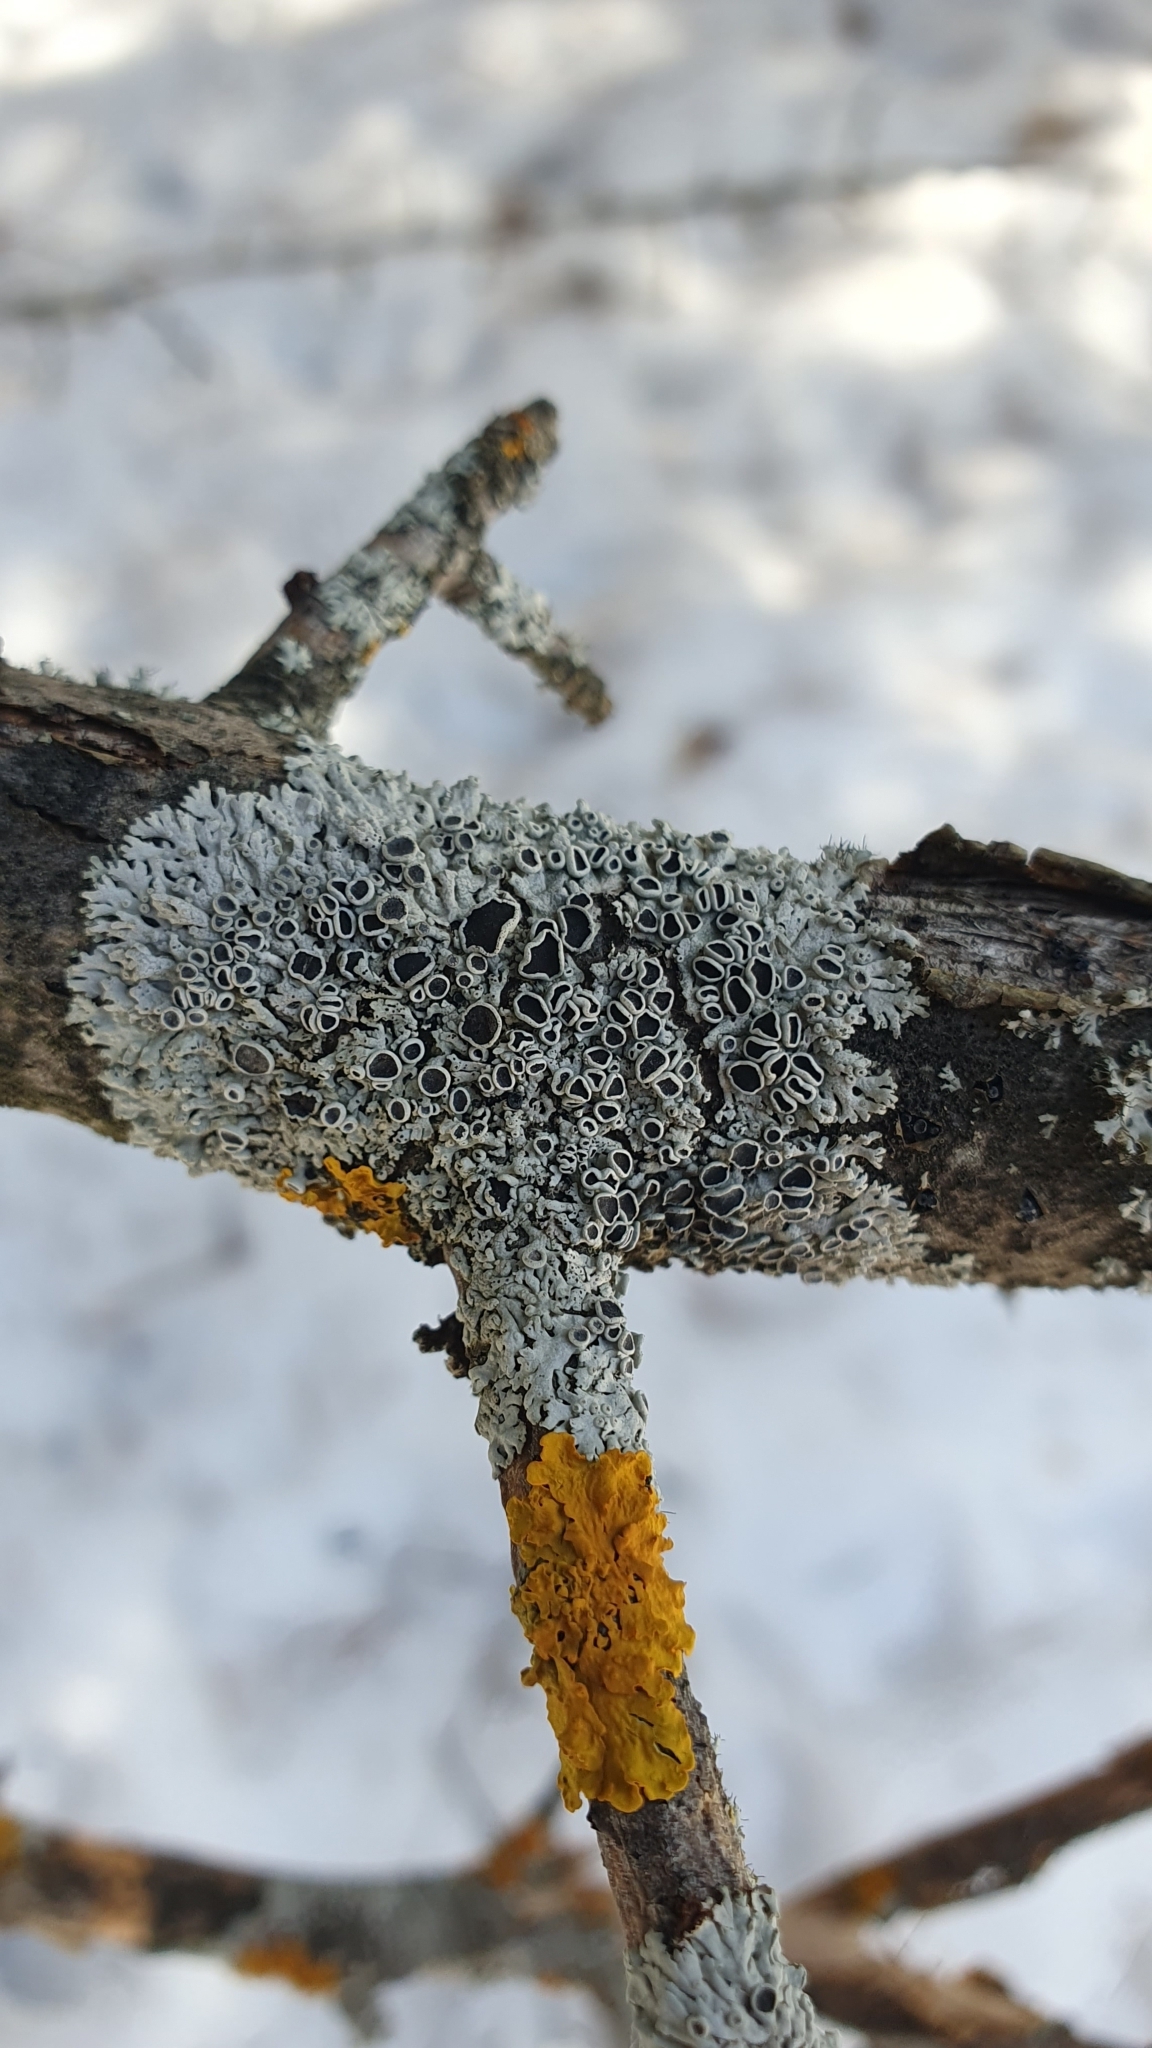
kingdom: Fungi
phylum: Ascomycota
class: Lecanoromycetes
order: Caliciales
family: Physciaceae
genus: Physcia
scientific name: Physcia stellaris
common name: Star rosette lichen
